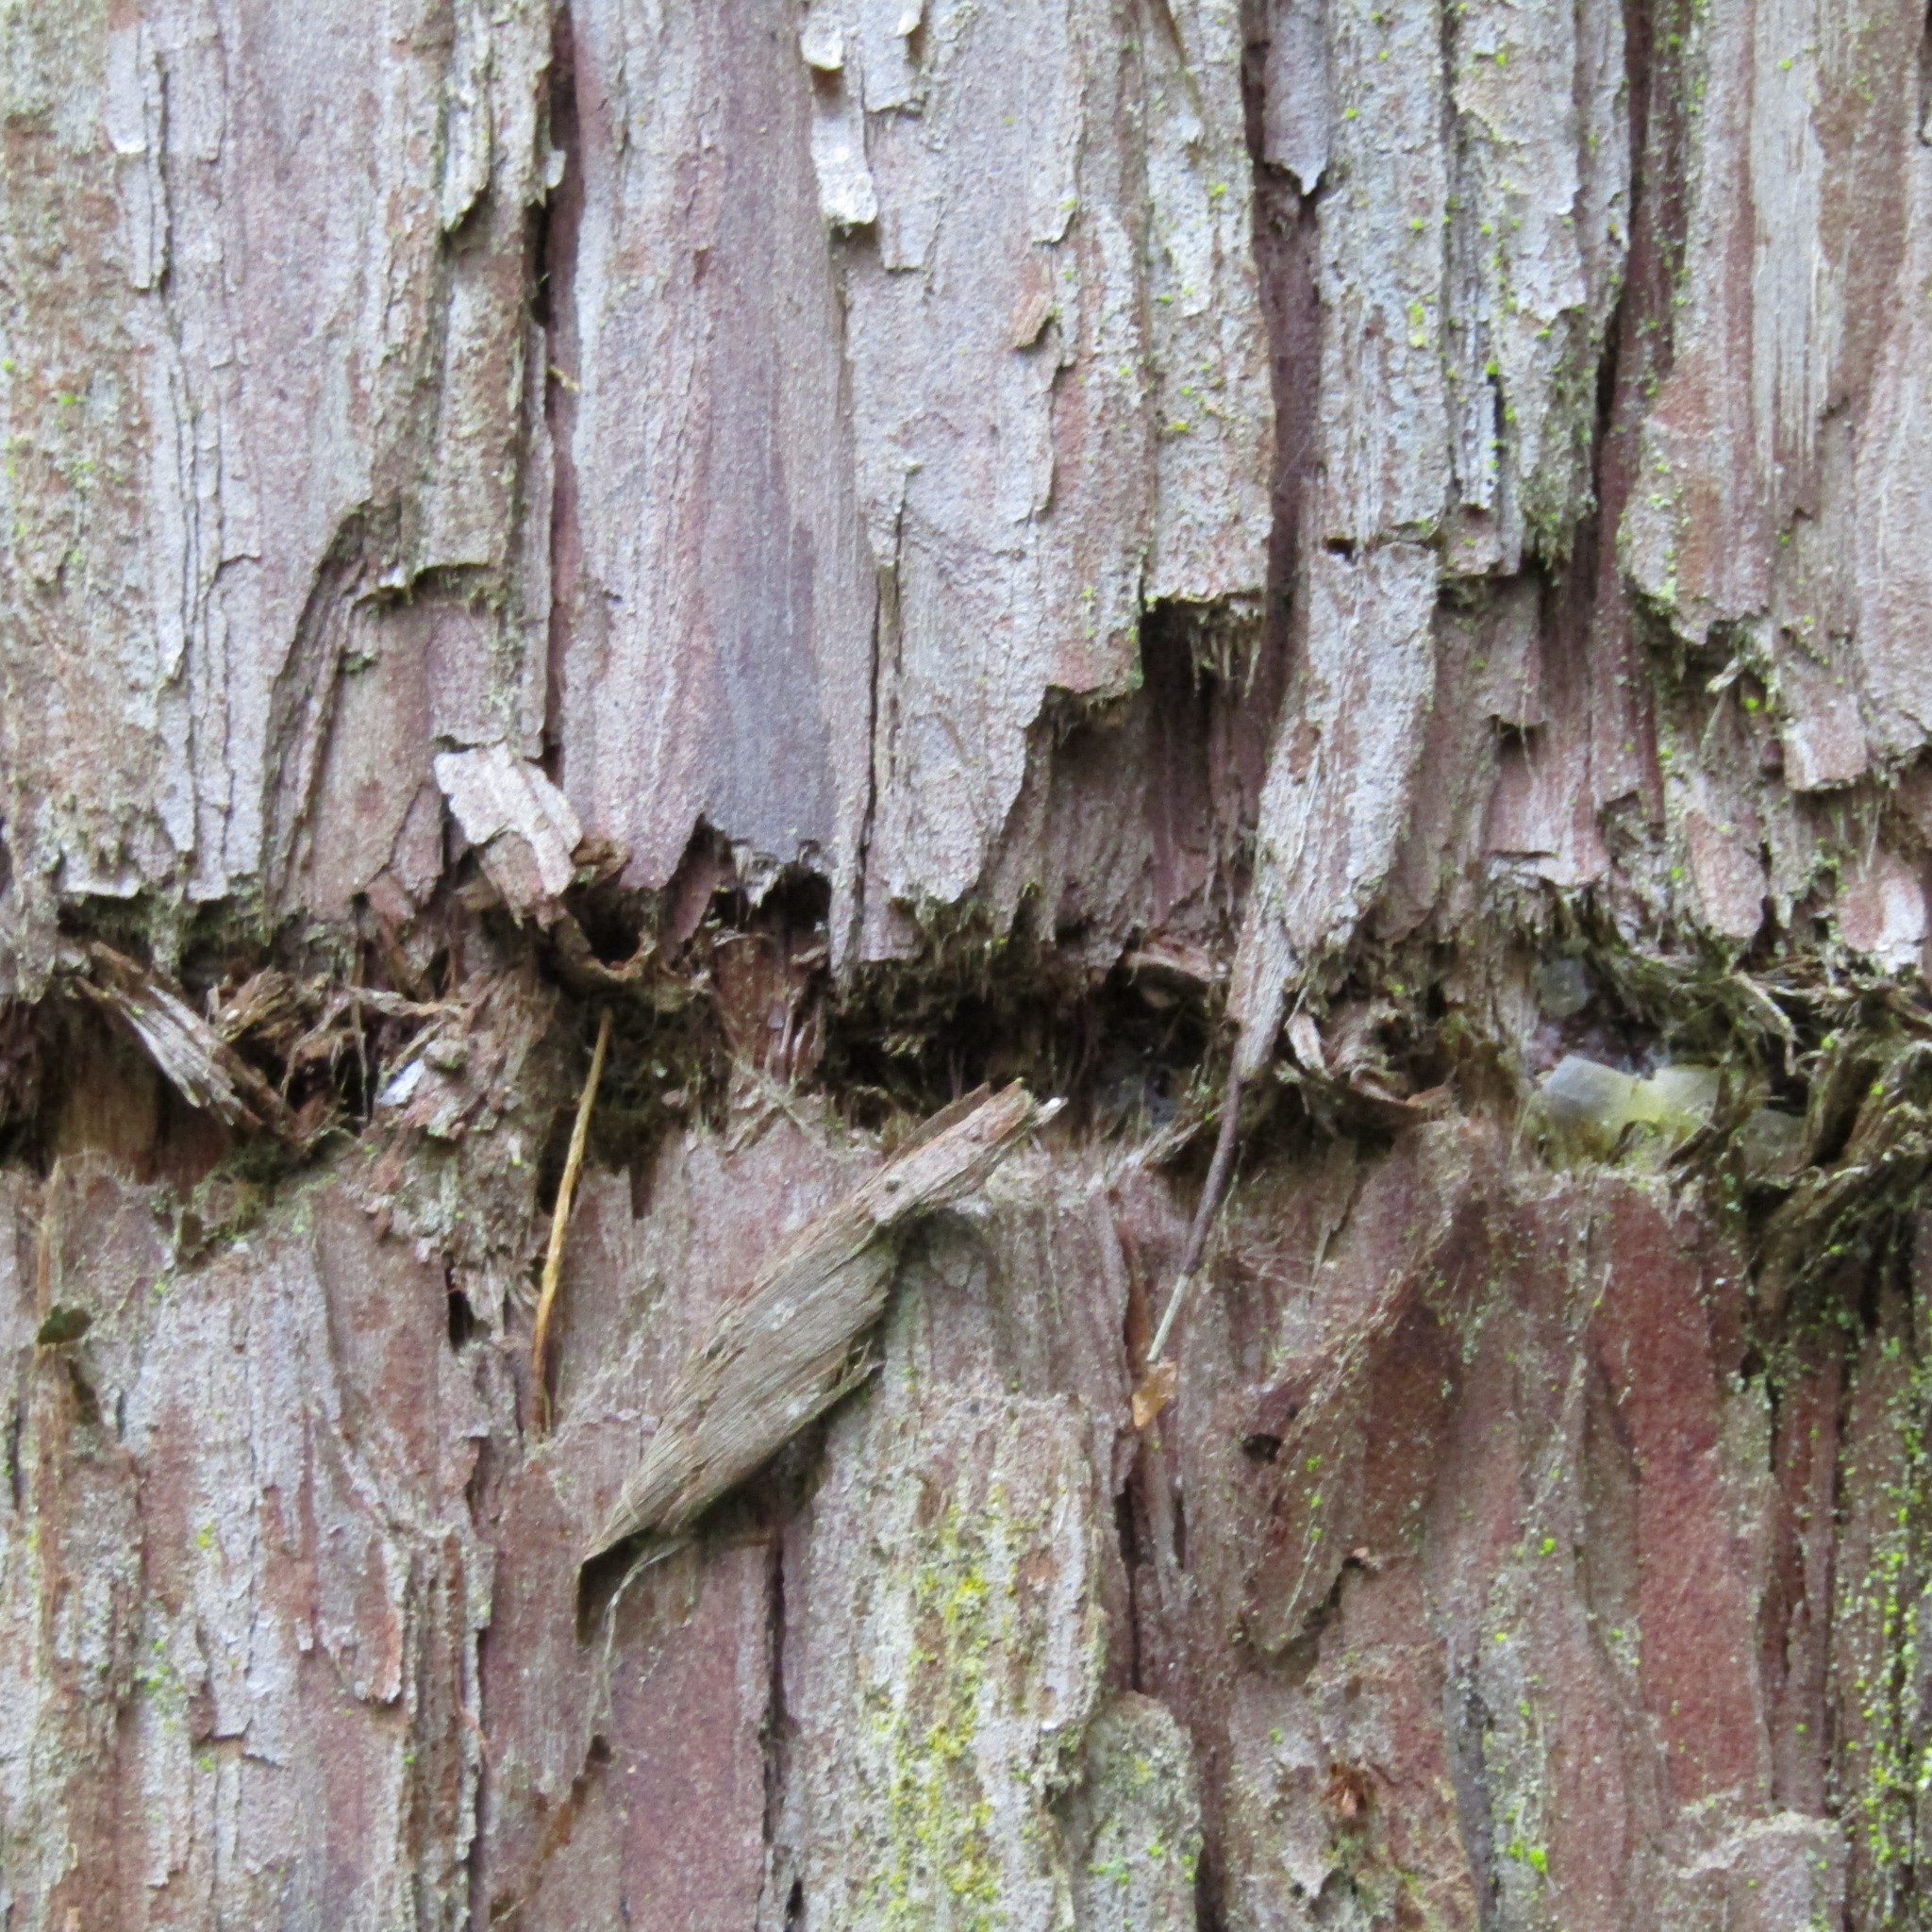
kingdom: Animalia
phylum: Chordata
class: Aves
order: Psittaciformes
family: Psittacidae
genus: Nestor
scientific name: Nestor meridionalis
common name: New zealand kaka
